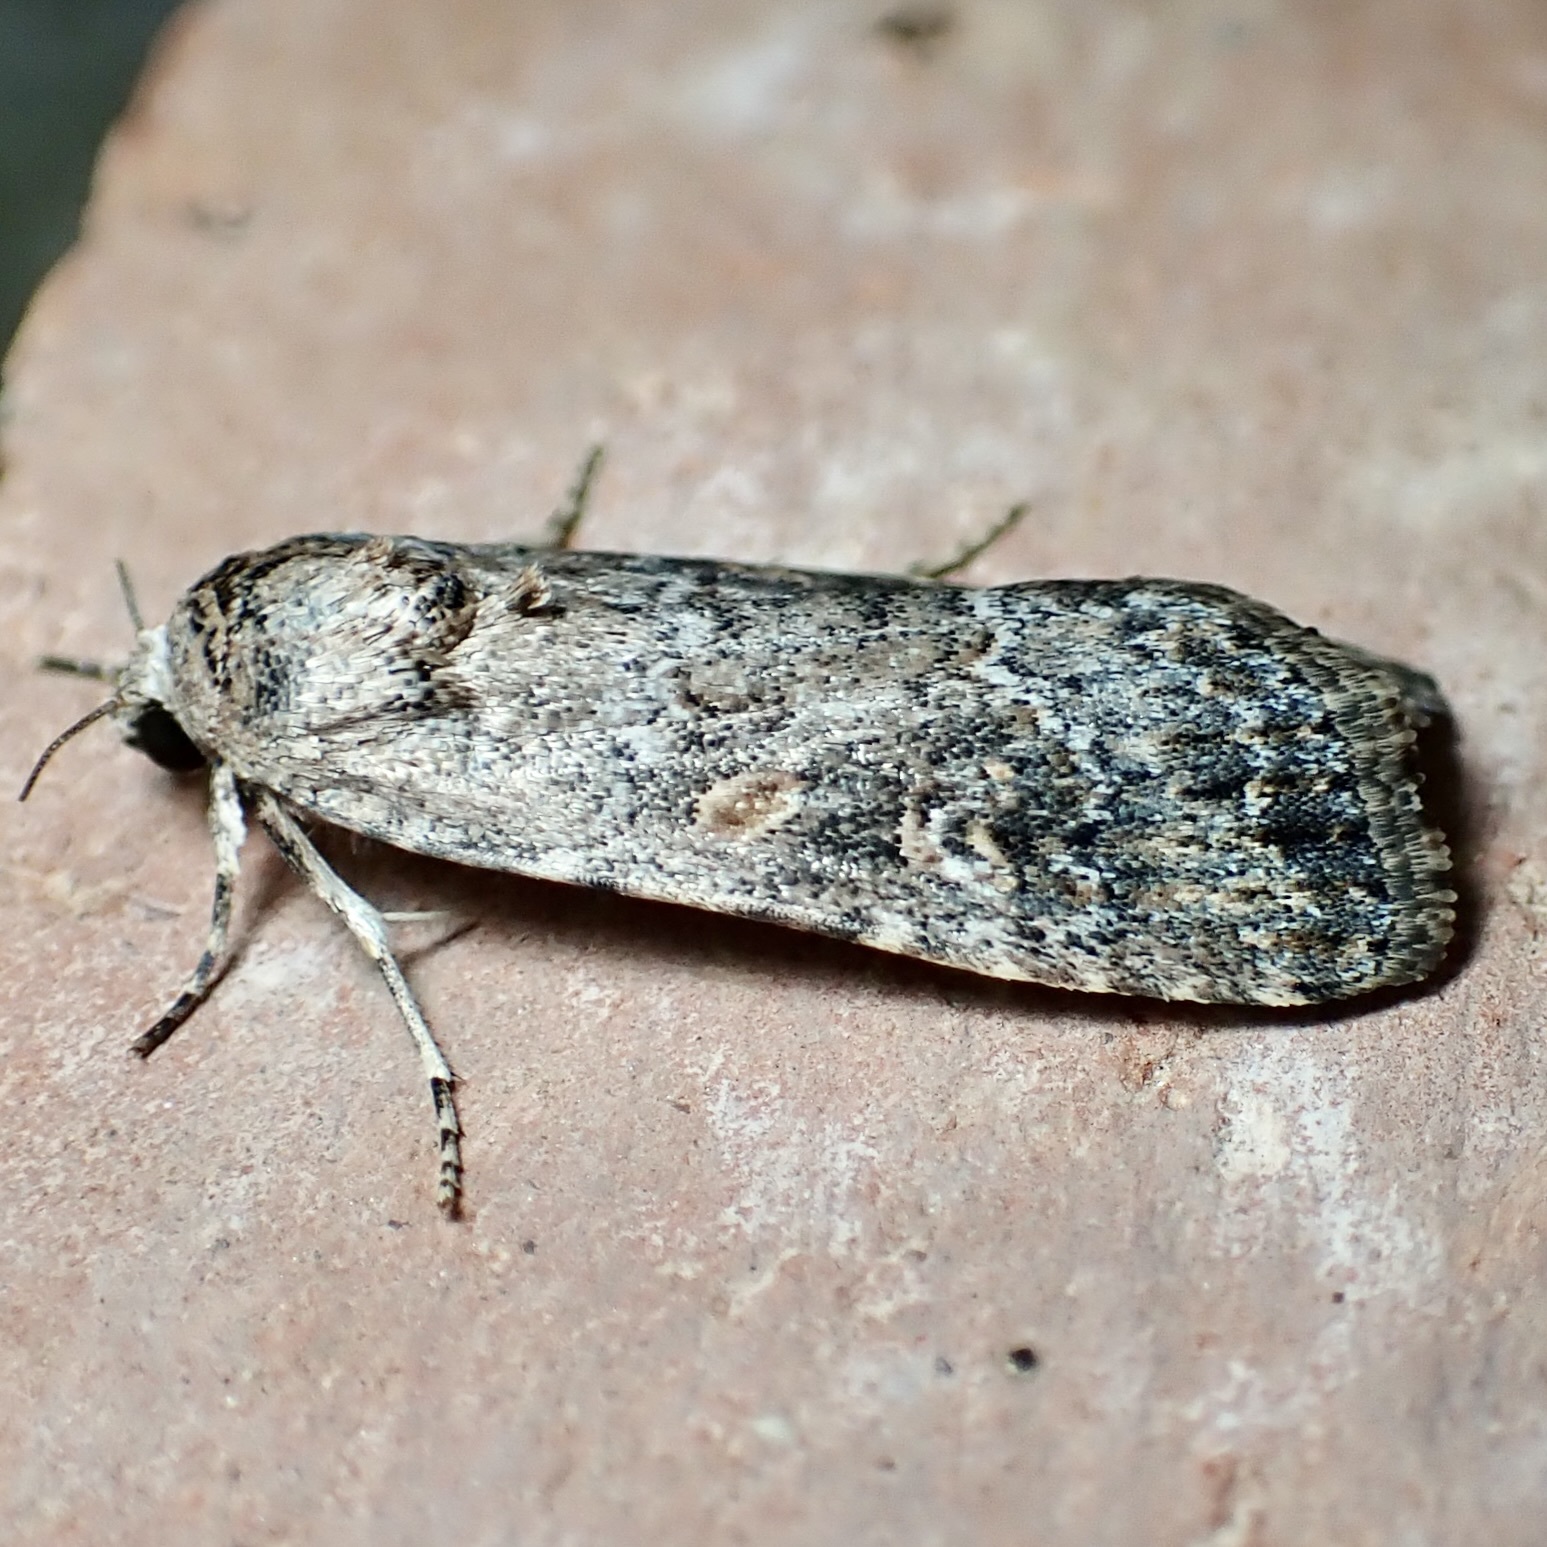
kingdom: Animalia
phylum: Arthropoda
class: Insecta
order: Lepidoptera
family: Noctuidae
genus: Spodoptera
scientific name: Spodoptera exigua
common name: Beet armyworm
